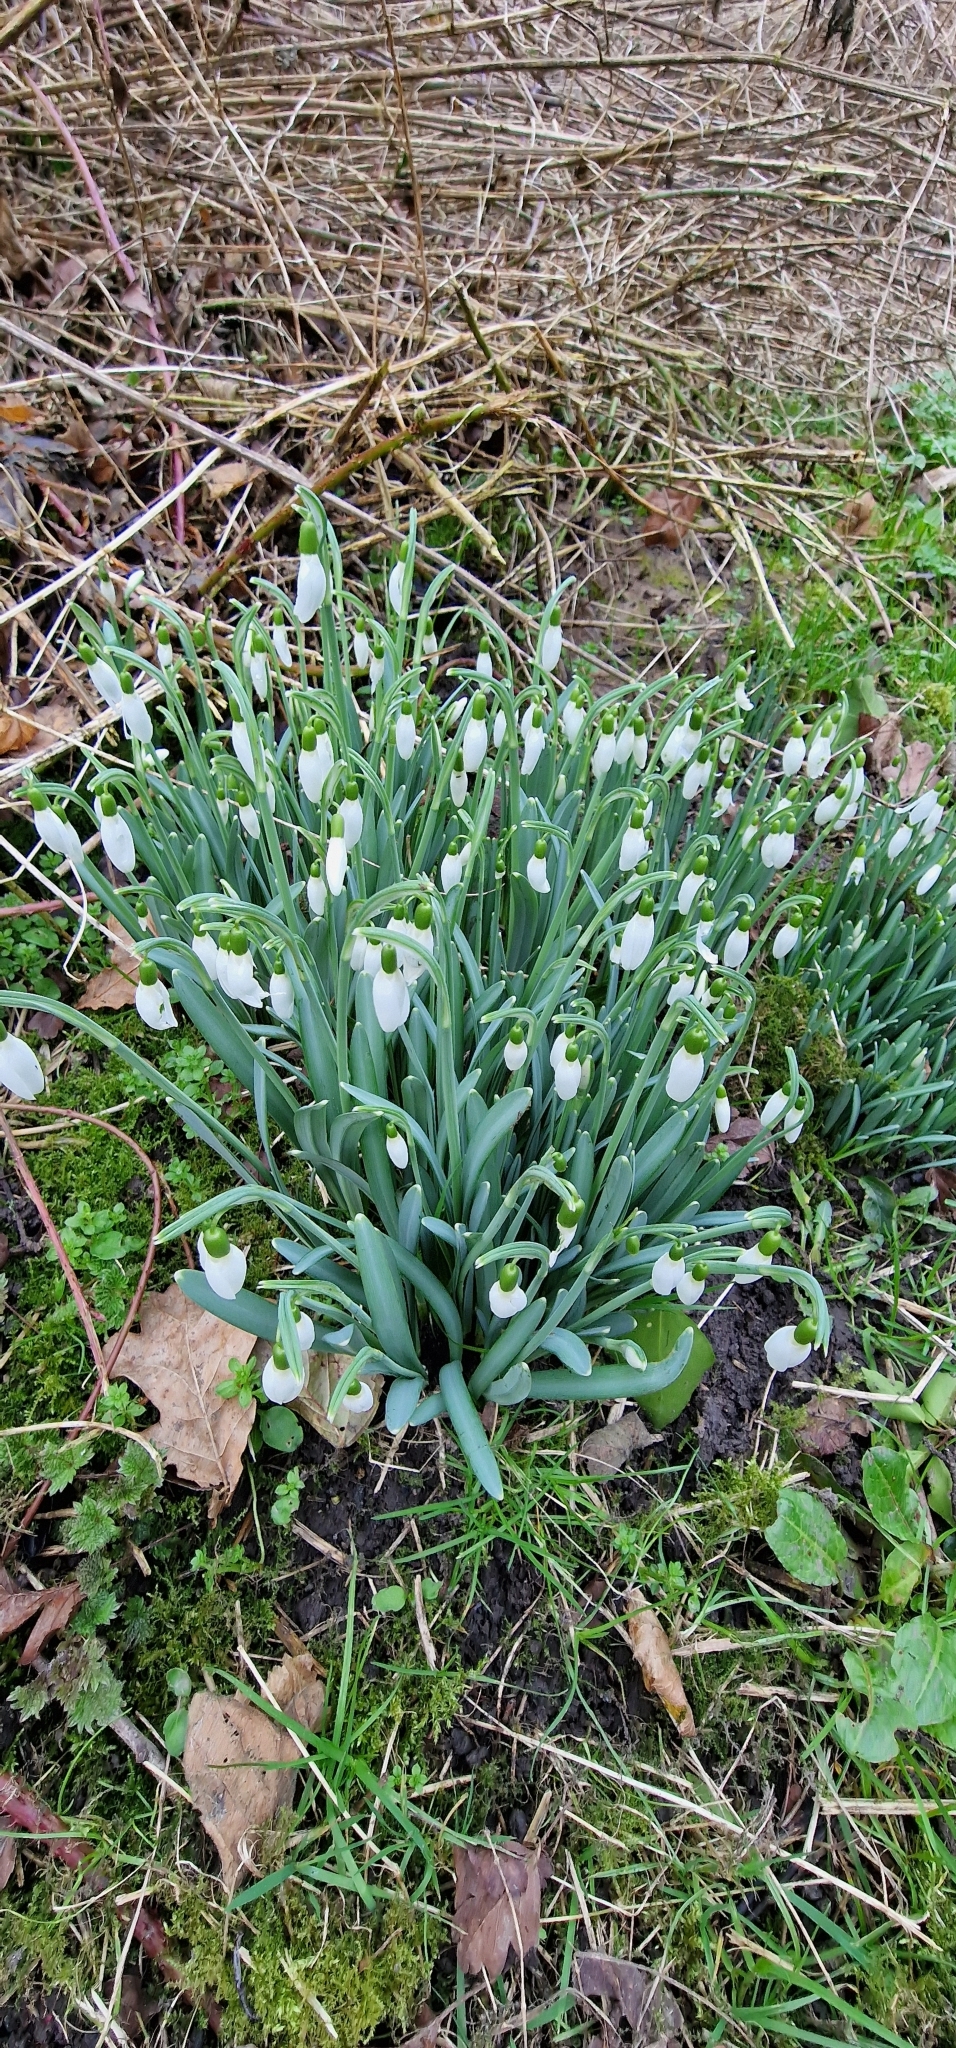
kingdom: Plantae
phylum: Tracheophyta
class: Liliopsida
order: Asparagales
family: Amaryllidaceae
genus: Galanthus
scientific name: Galanthus nivalis
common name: Snowdrop
